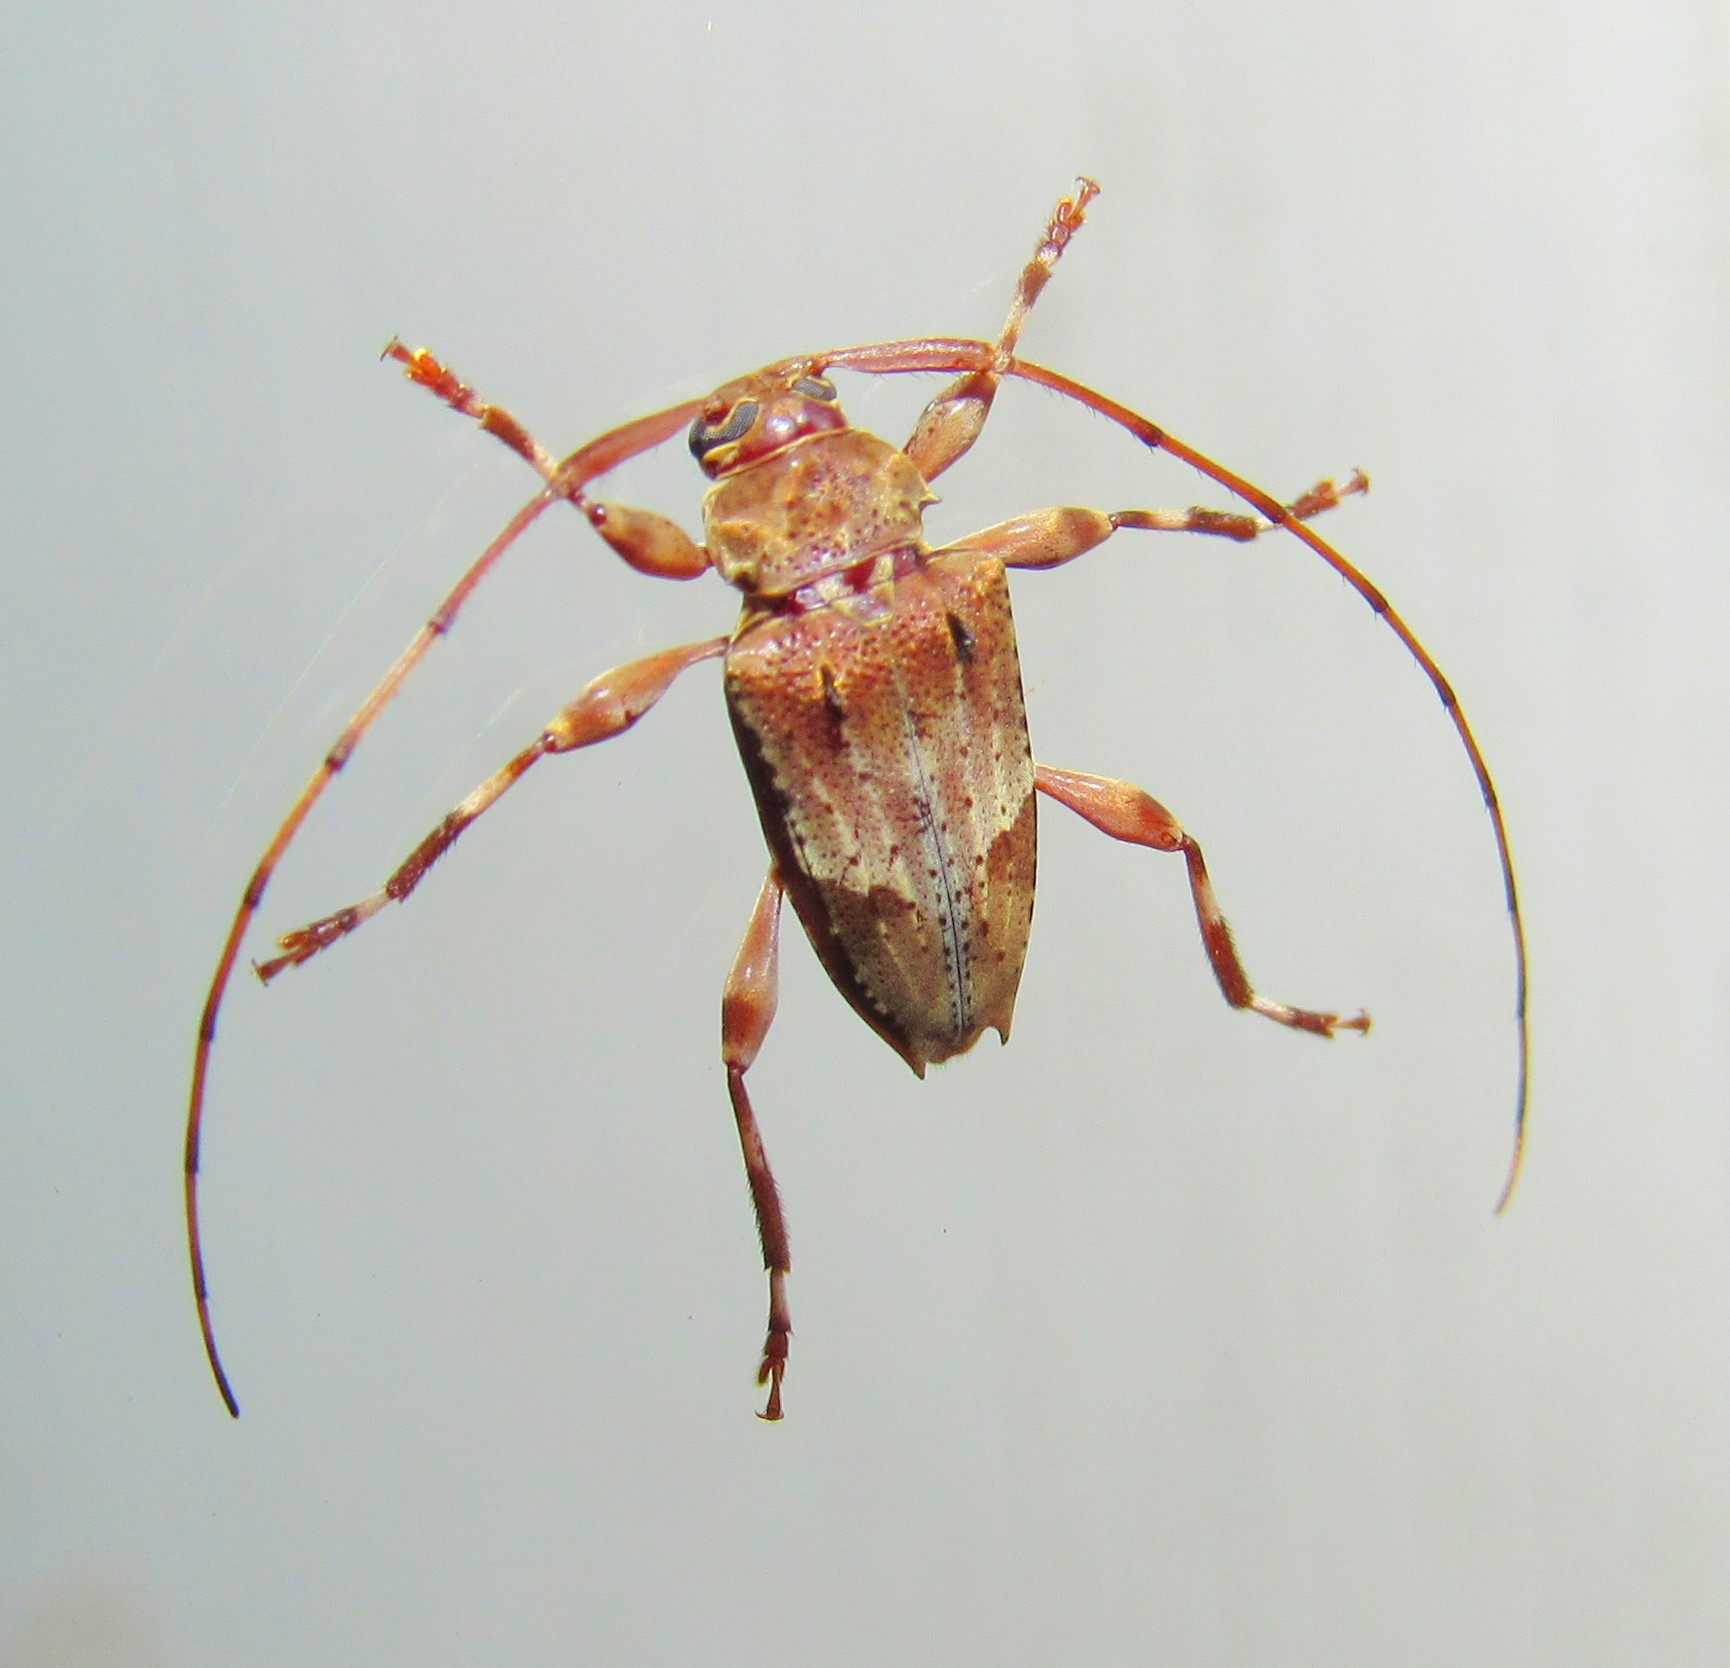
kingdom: Animalia
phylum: Arthropoda
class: Insecta
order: Coleoptera
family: Cerambycidae
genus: Tropidozineus
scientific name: Tropidozineus fulveolus
